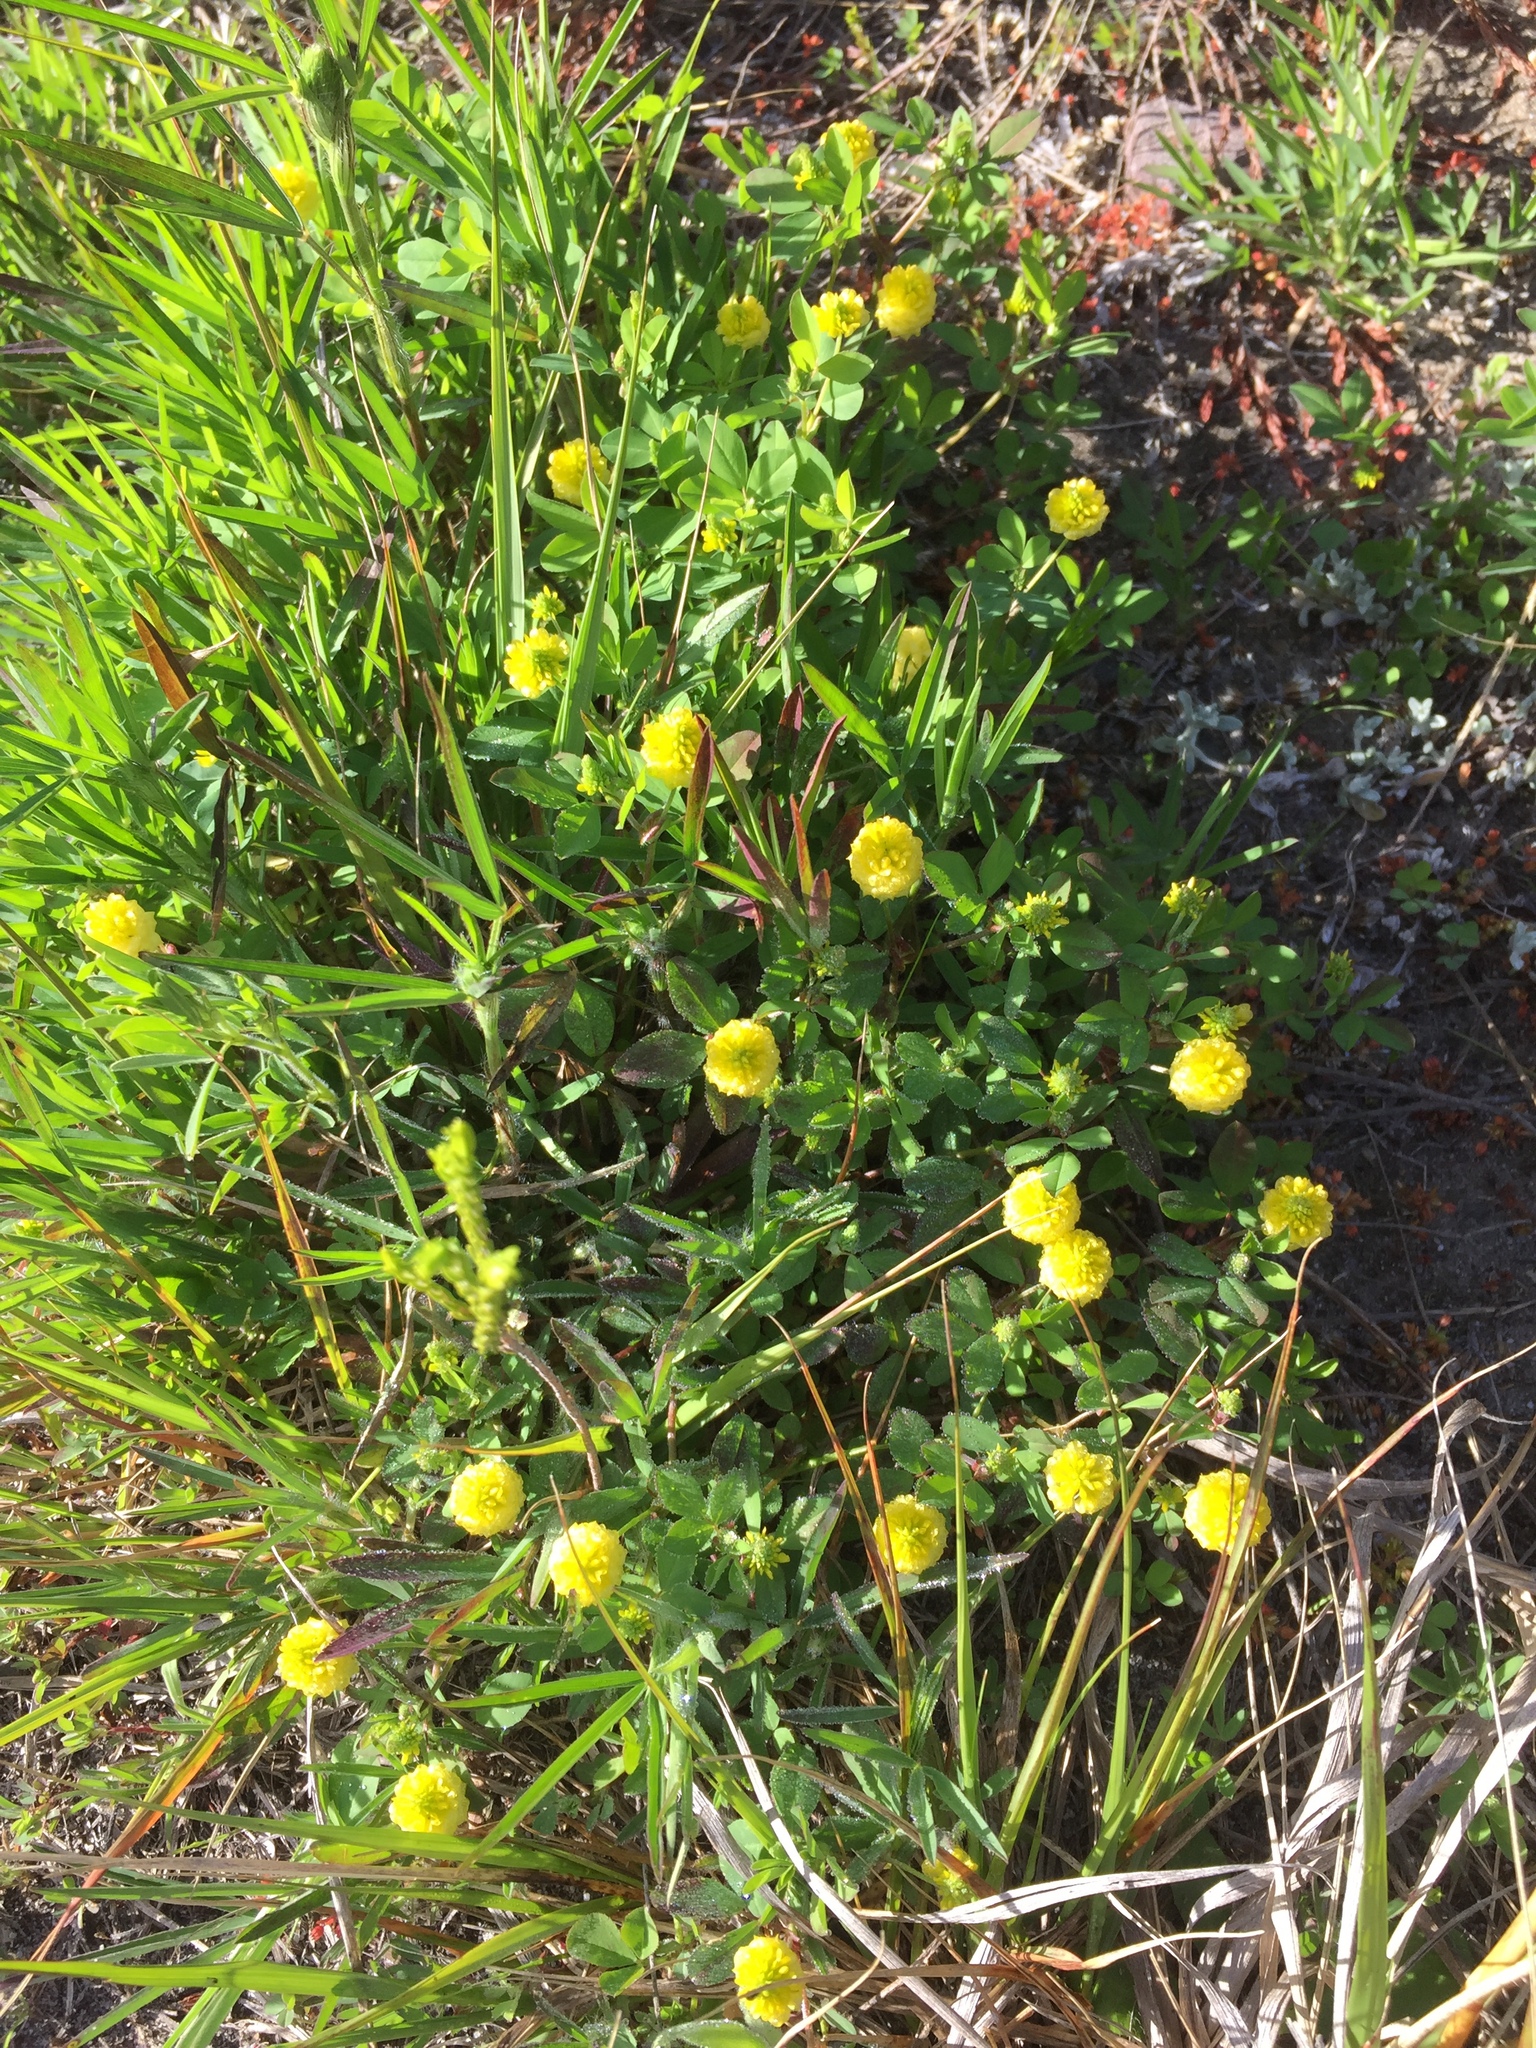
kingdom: Plantae
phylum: Tracheophyta
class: Magnoliopsida
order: Fabales
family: Fabaceae
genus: Trifolium
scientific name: Trifolium campestre
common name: Field clover
